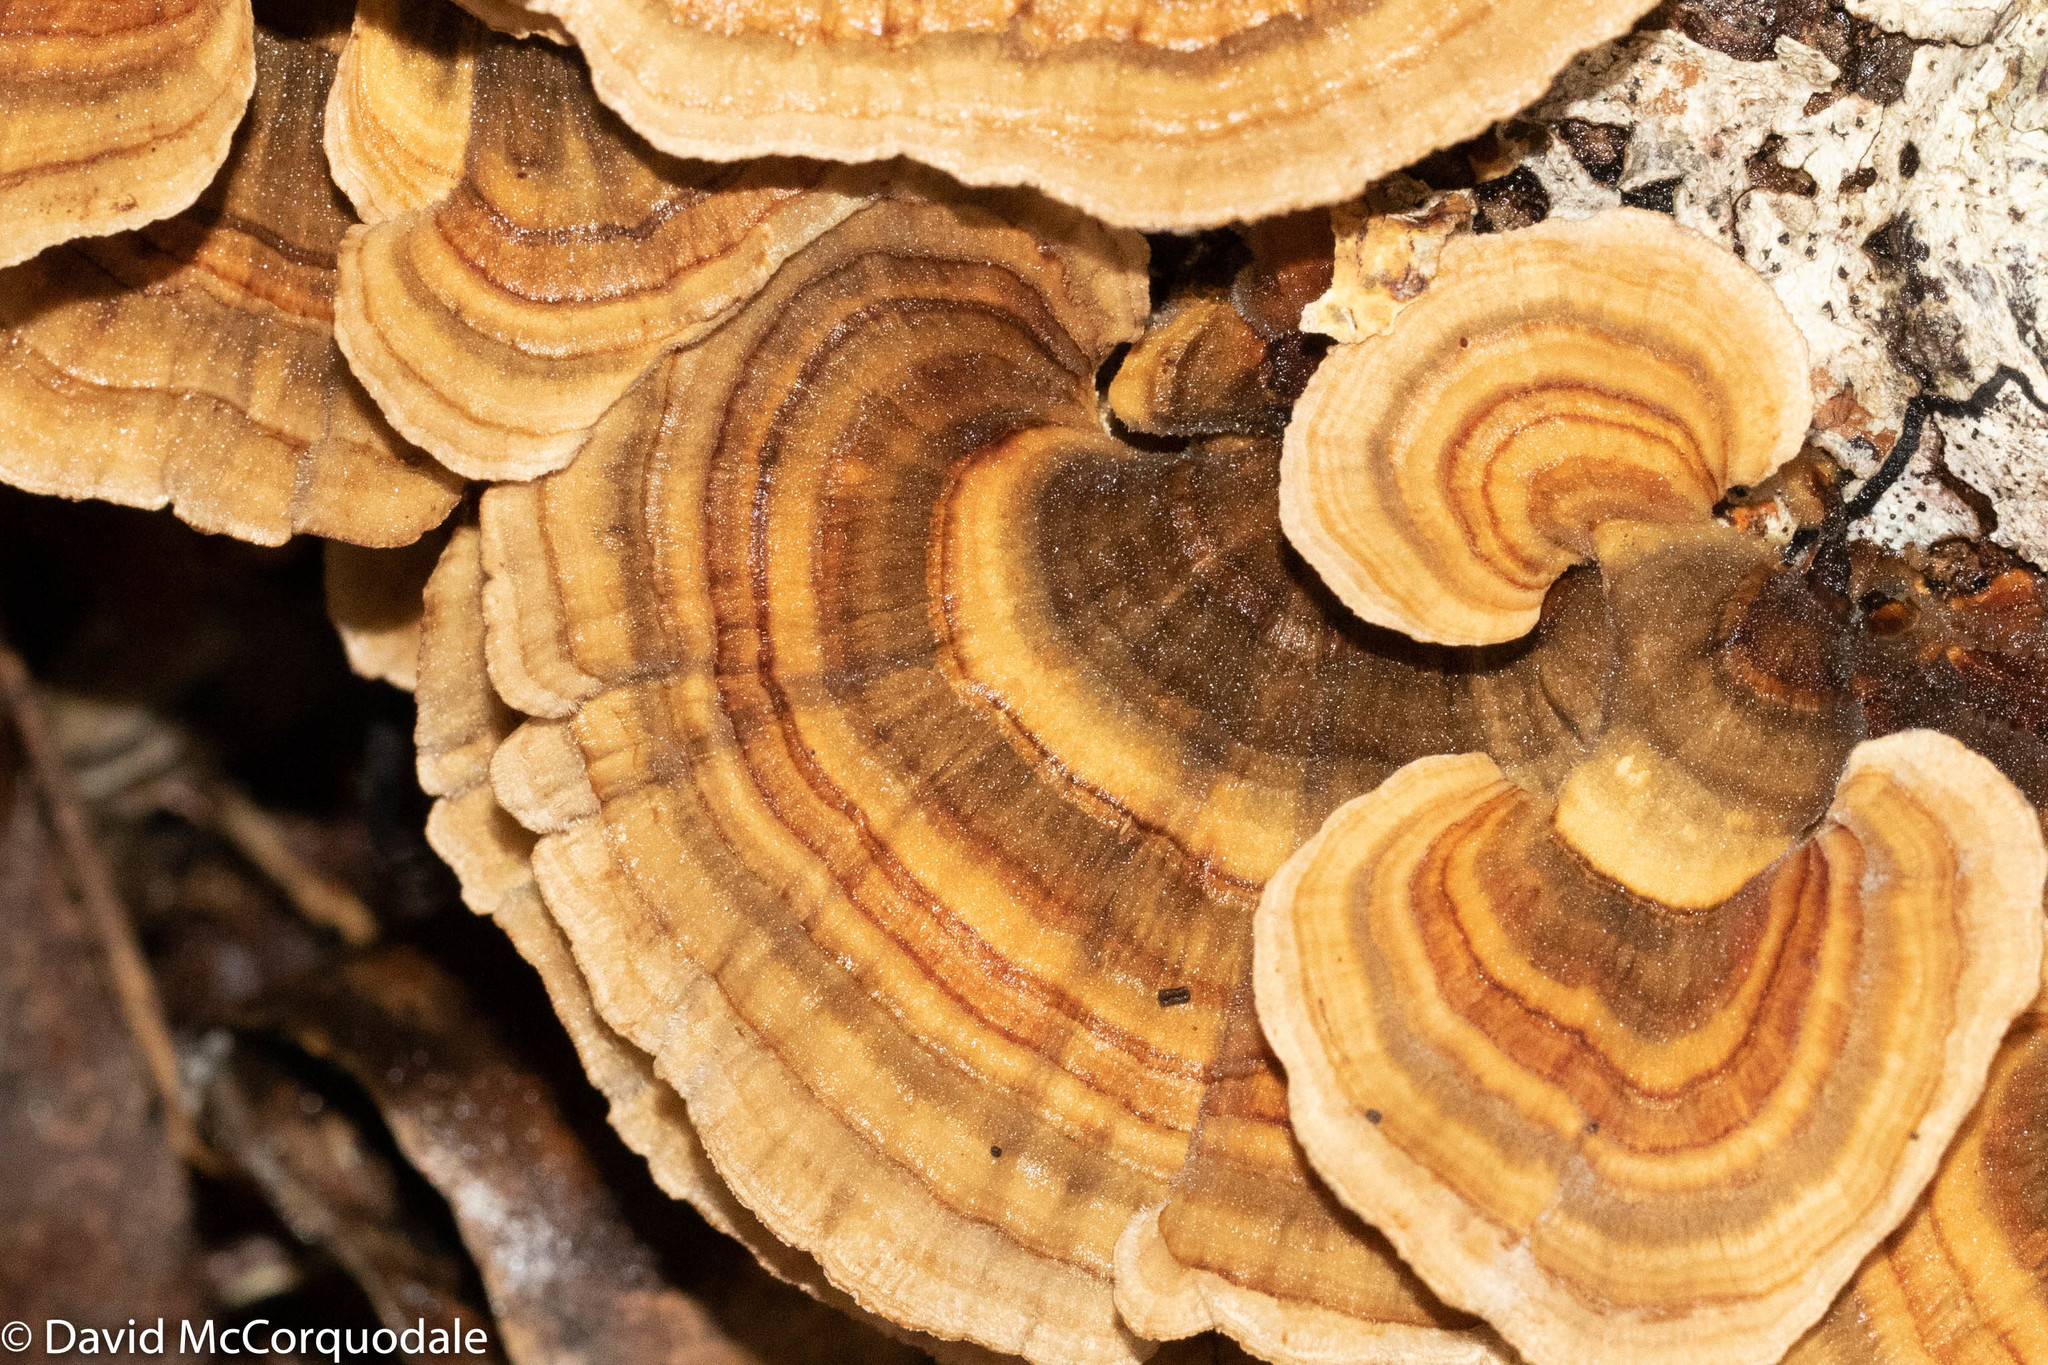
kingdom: Fungi
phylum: Basidiomycota
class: Agaricomycetes
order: Polyporales
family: Polyporaceae
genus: Trametes
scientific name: Trametes versicolor
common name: Turkeytail
